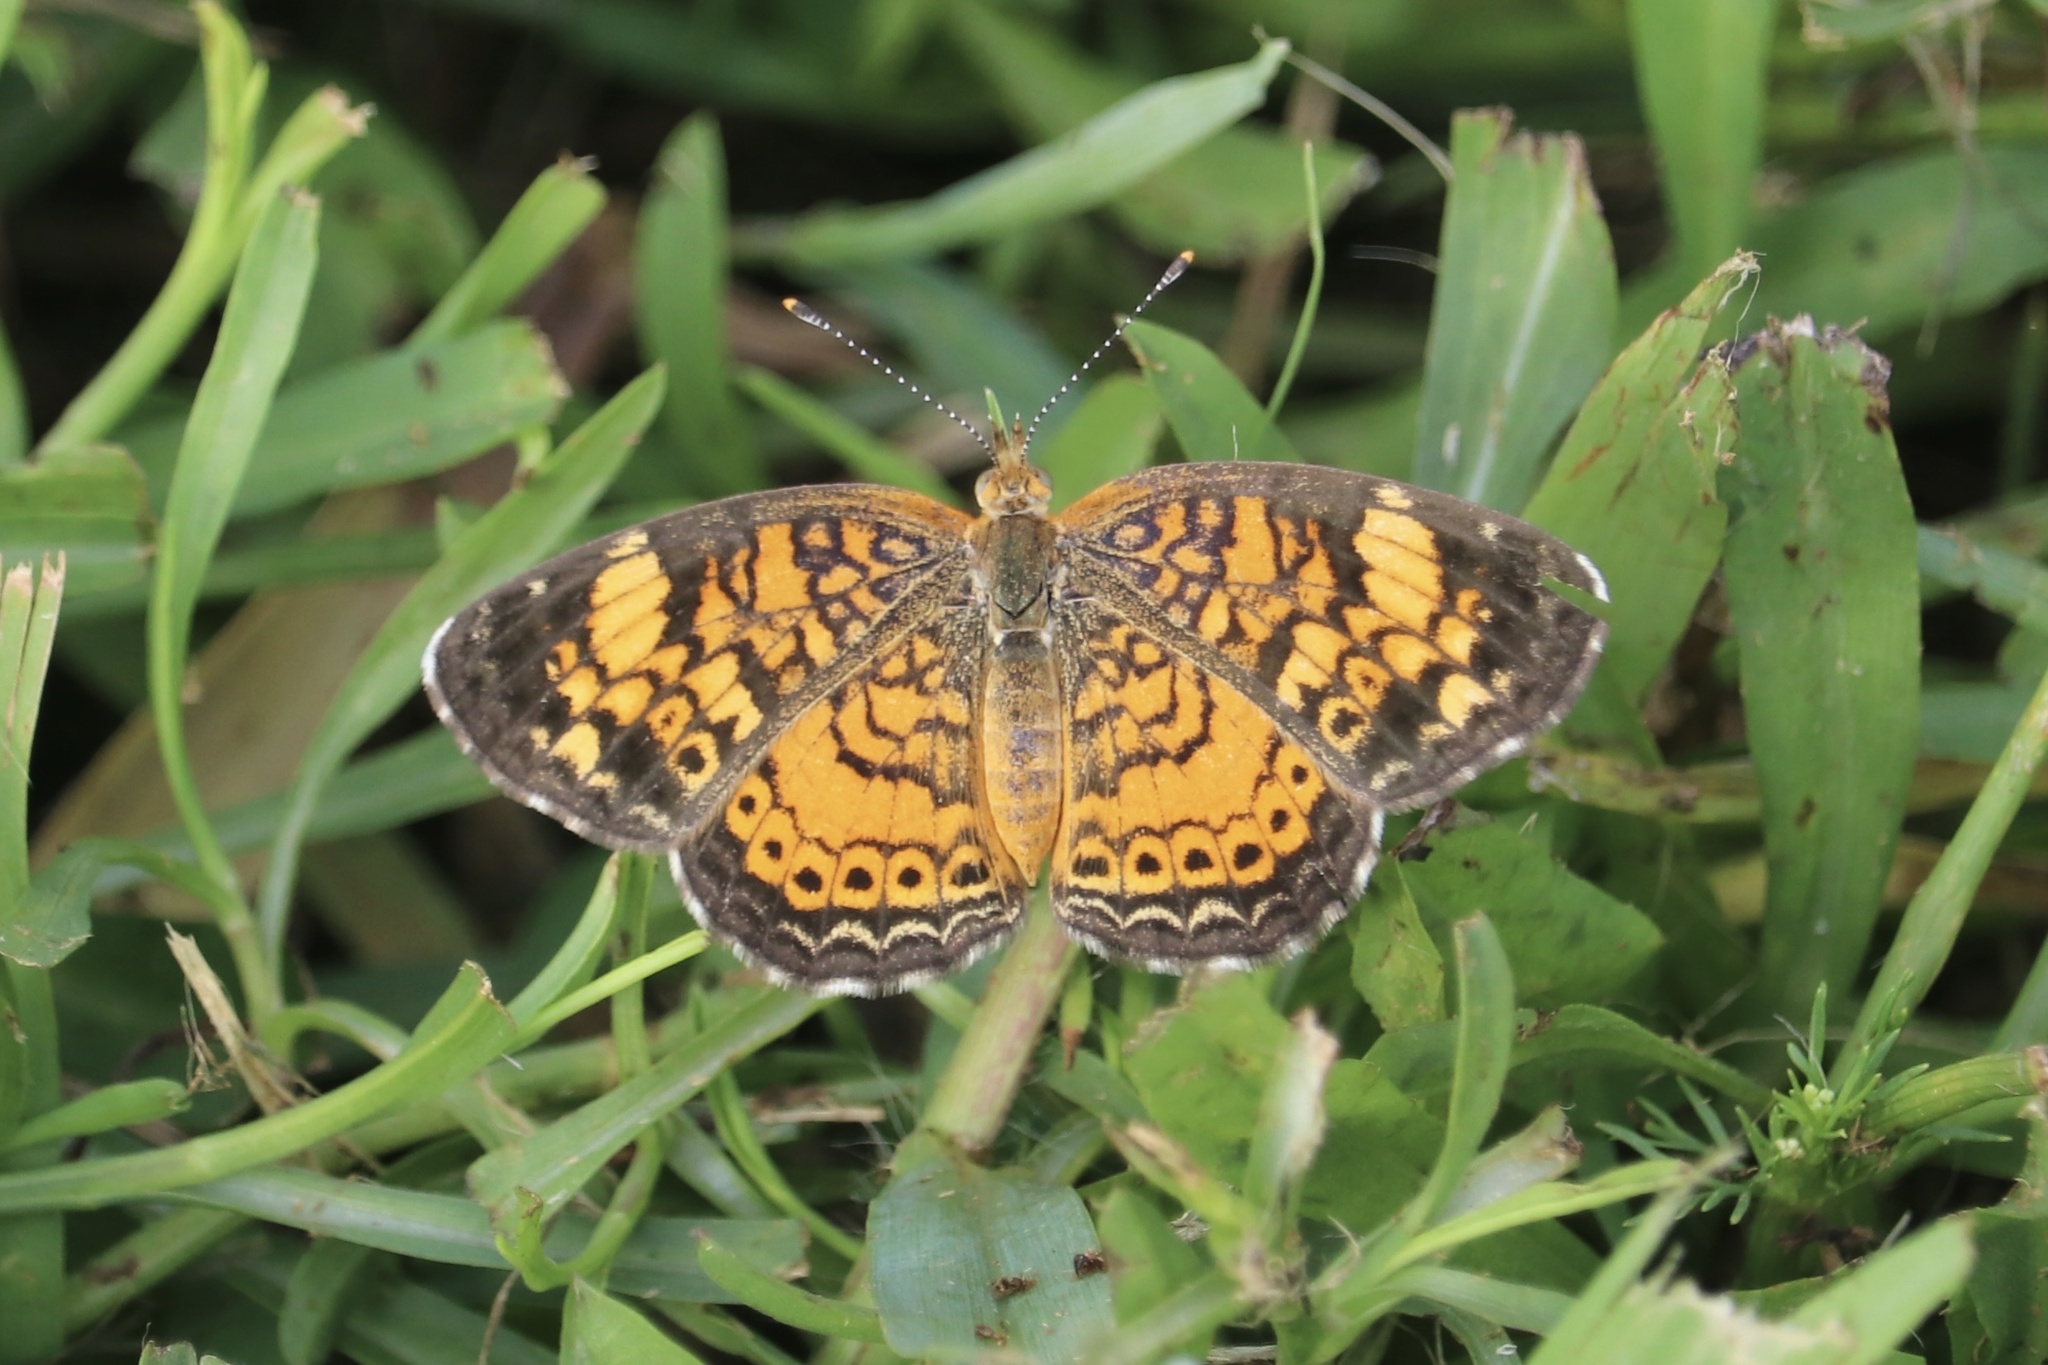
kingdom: Animalia
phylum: Arthropoda
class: Insecta
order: Lepidoptera
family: Nymphalidae
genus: Phyciodes
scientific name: Phyciodes tharos
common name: Pearl crescent
